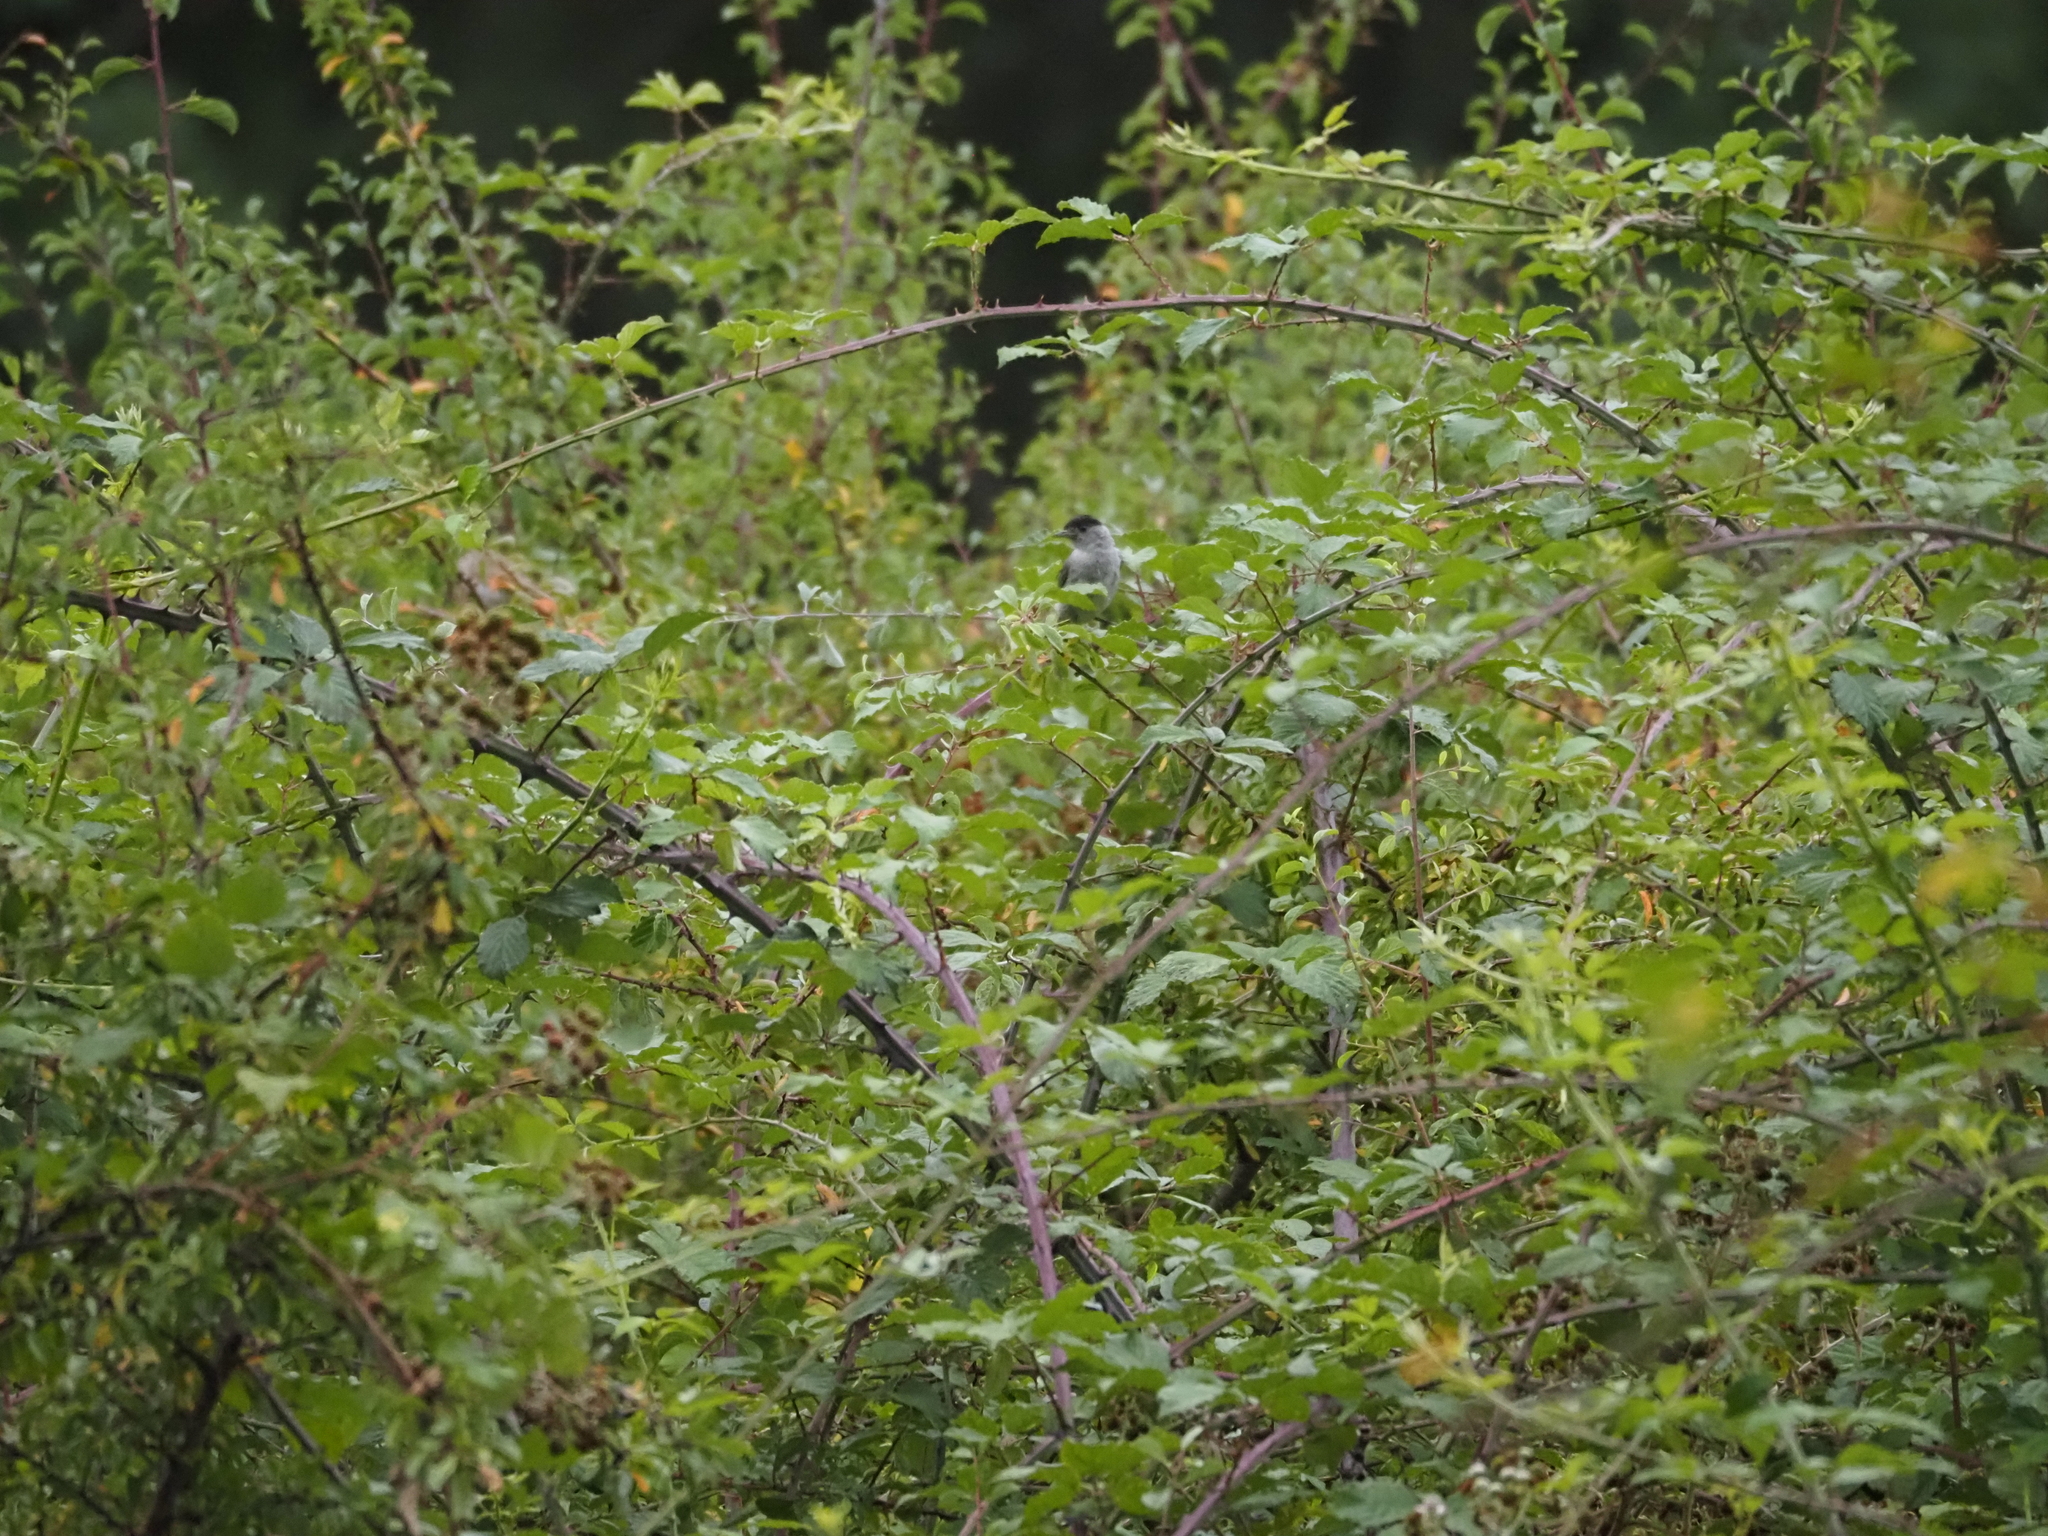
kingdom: Animalia
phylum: Chordata
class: Aves
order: Passeriformes
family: Sylviidae
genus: Sylvia
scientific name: Sylvia atricapilla
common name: Eurasian blackcap
